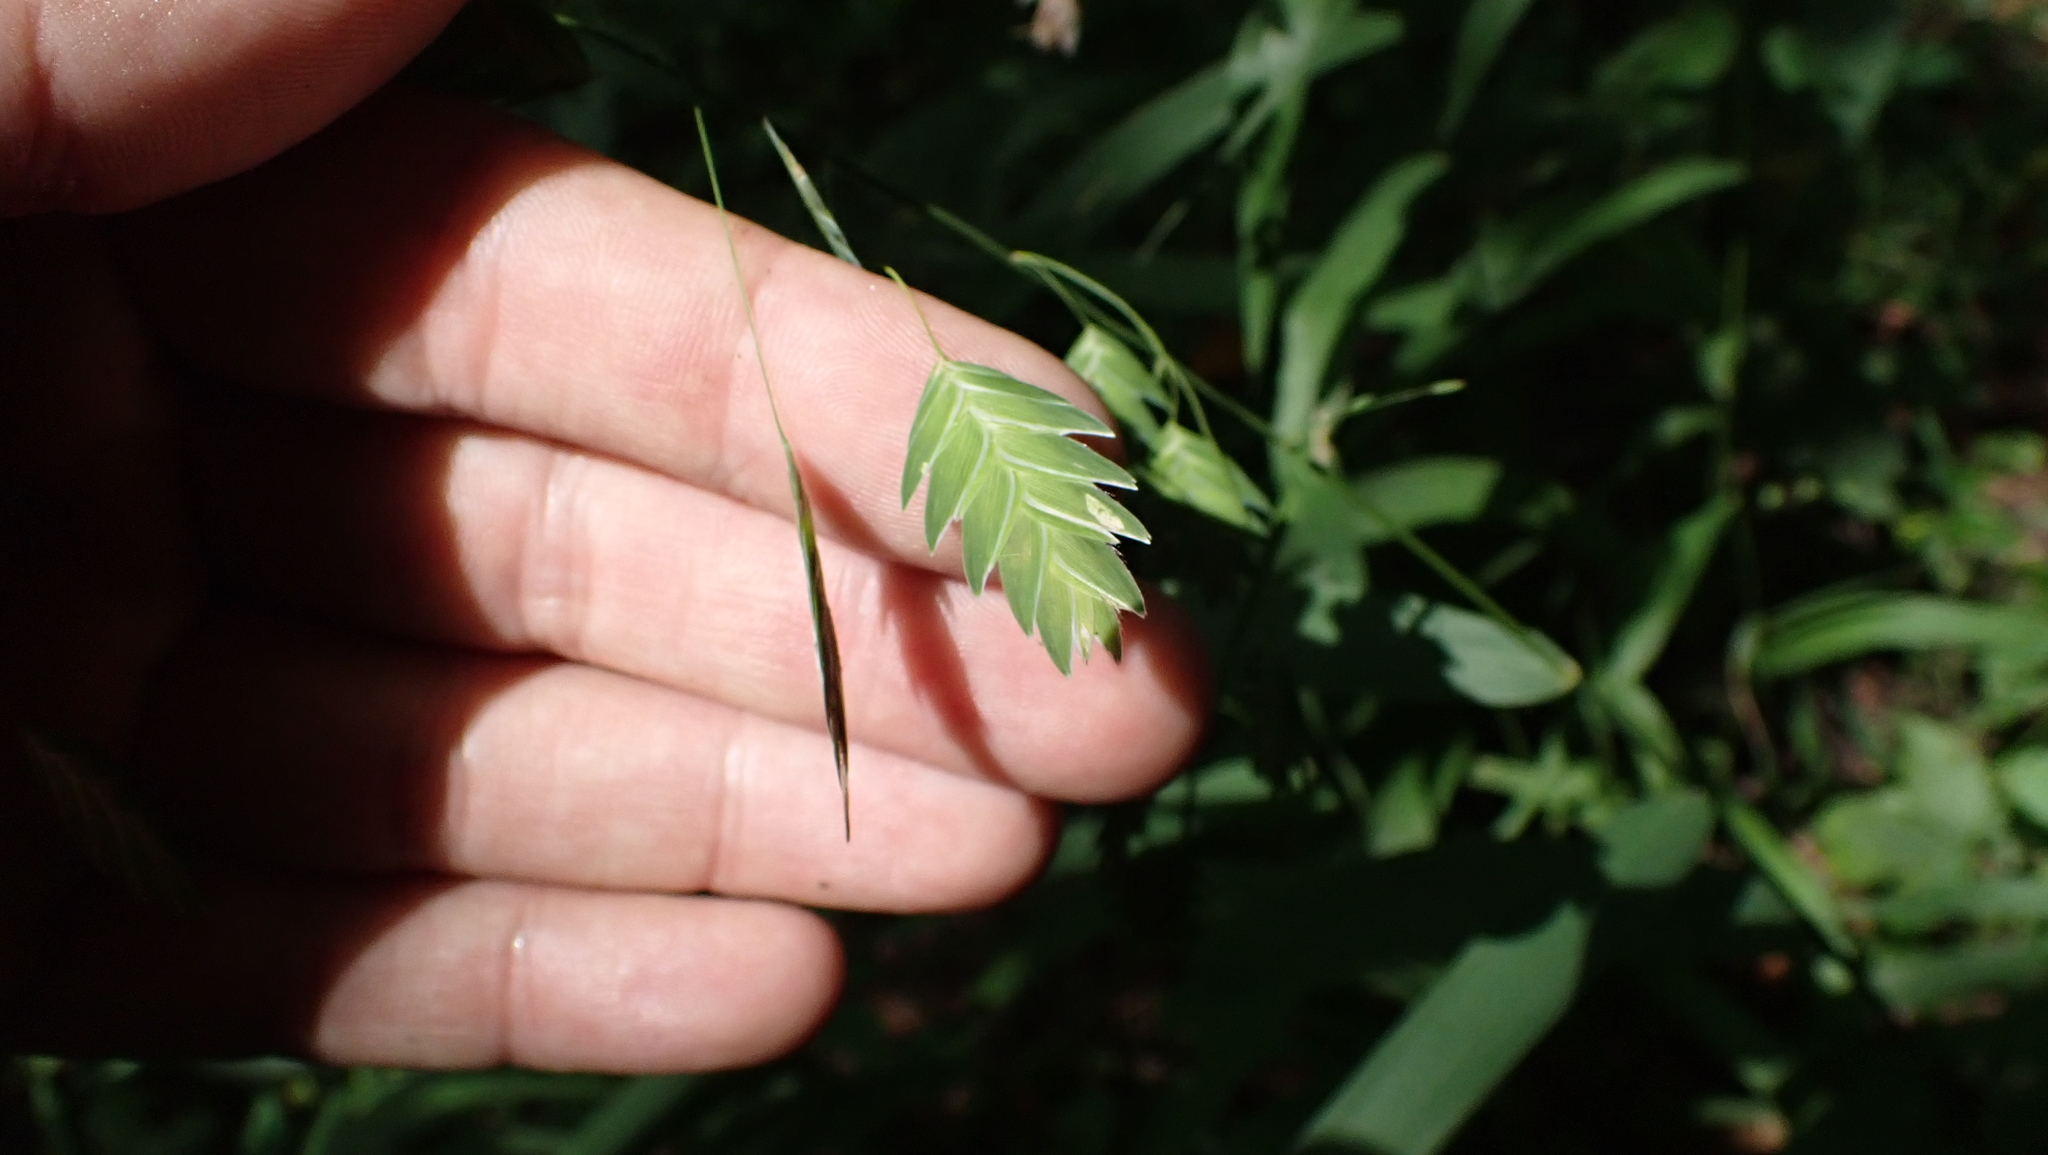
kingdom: Plantae
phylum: Tracheophyta
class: Liliopsida
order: Poales
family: Poaceae
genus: Chasmanthium
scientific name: Chasmanthium latifolium
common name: Broad-leaved chasmanthium
